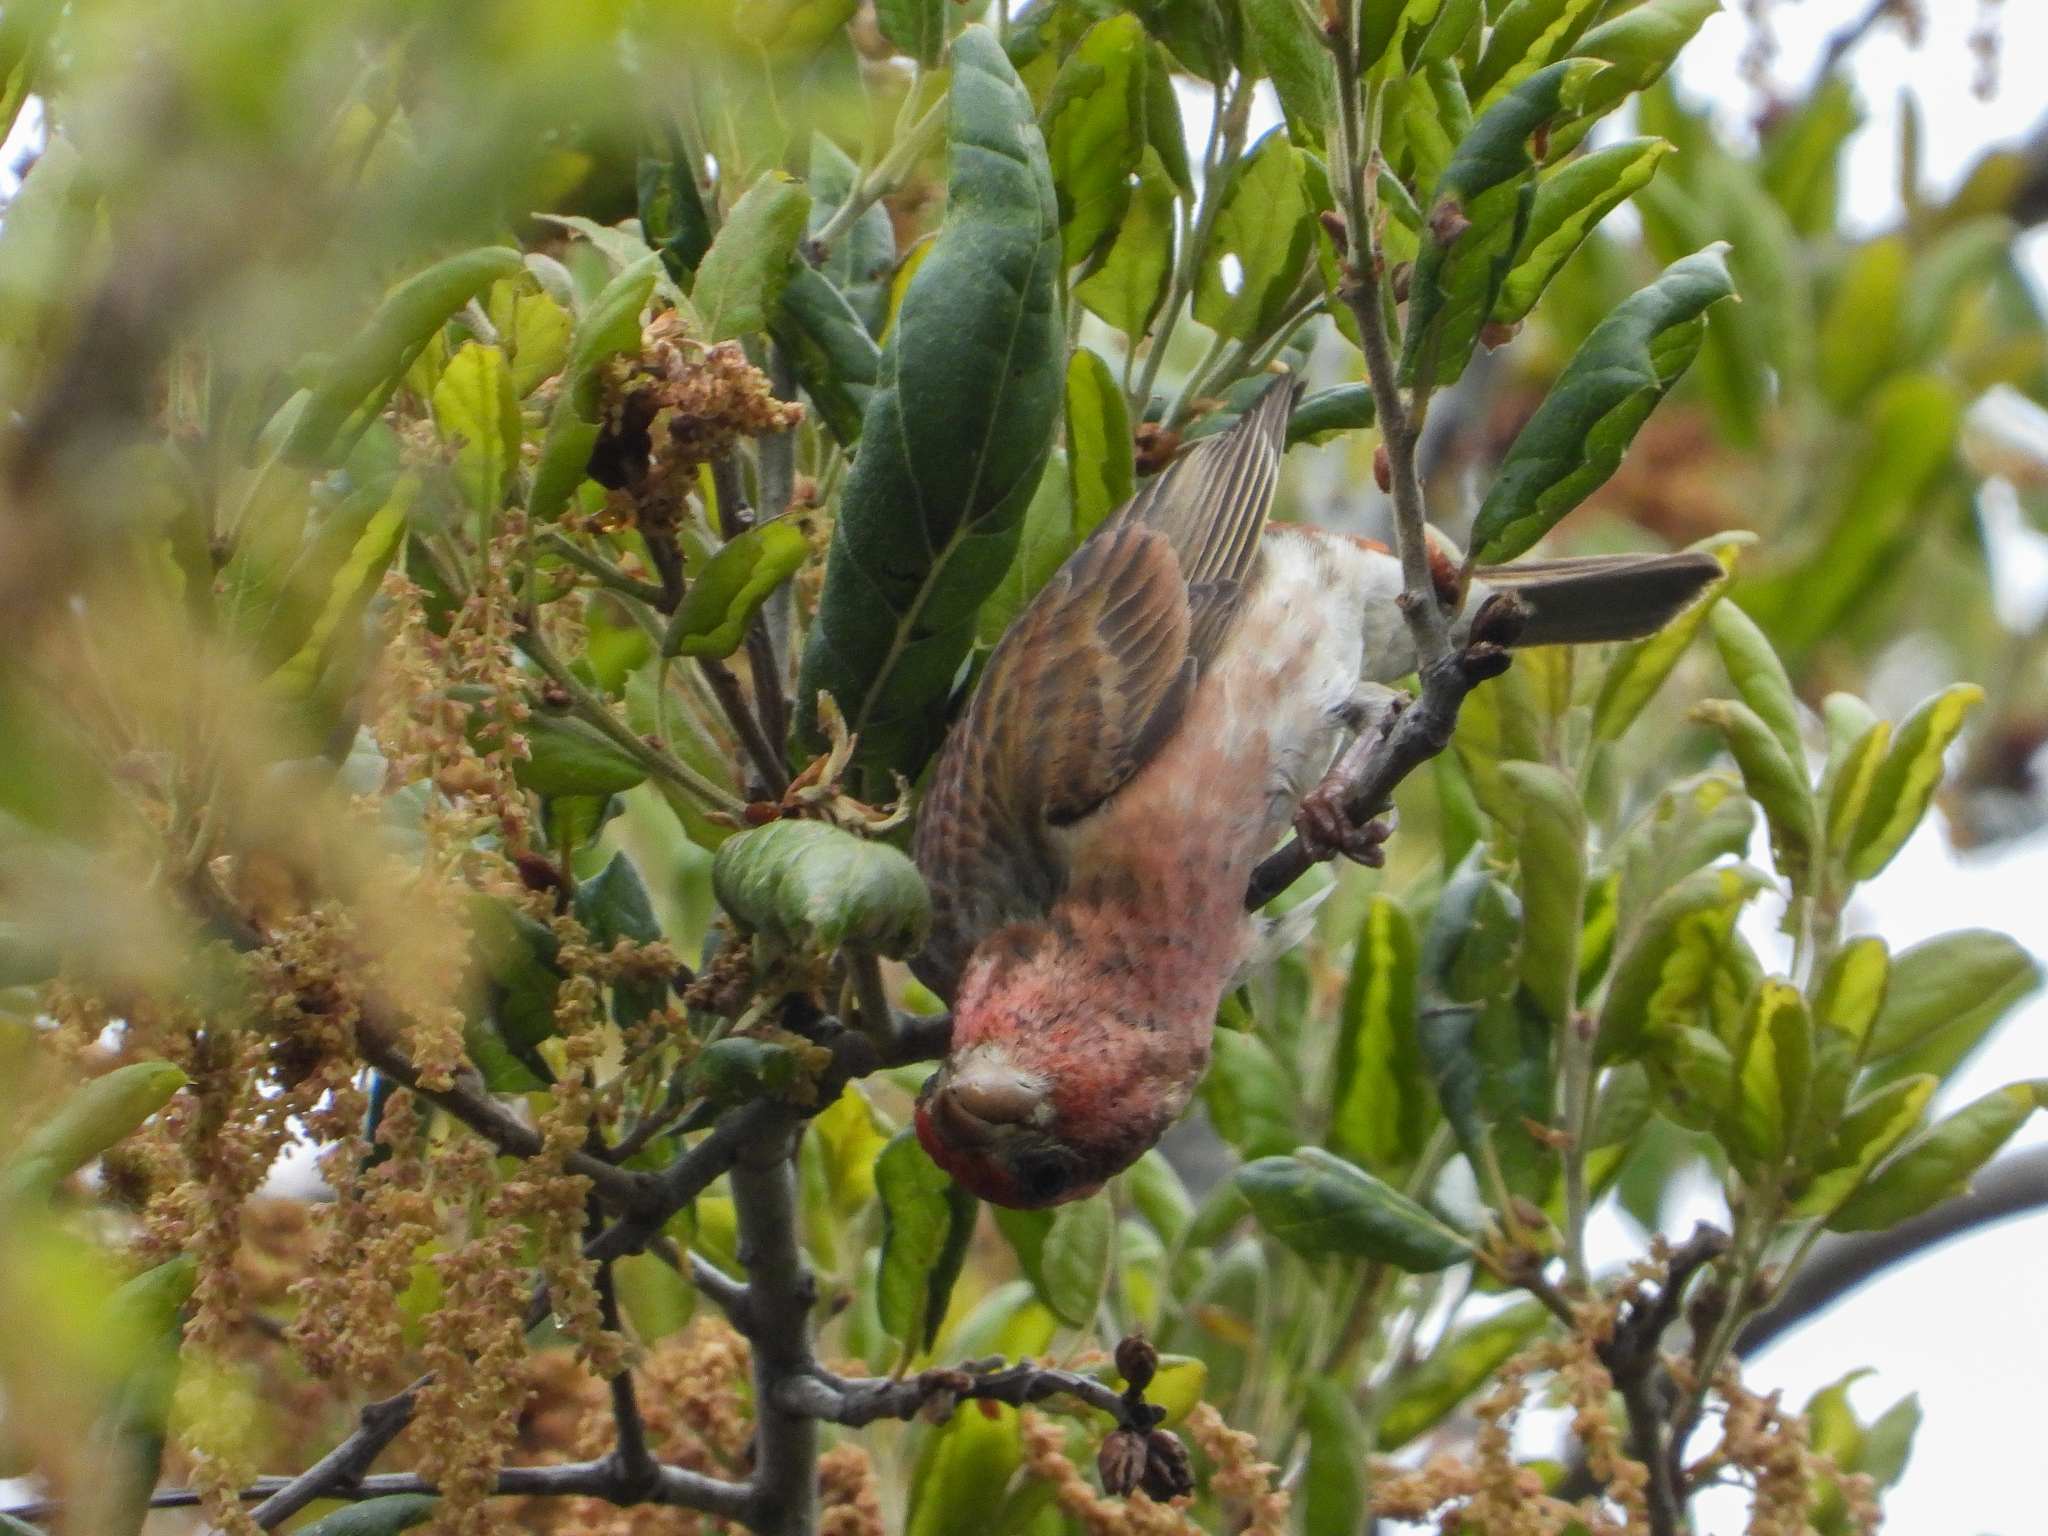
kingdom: Animalia
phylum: Chordata
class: Aves
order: Passeriformes
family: Fringillidae
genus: Haemorhous
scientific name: Haemorhous purpureus
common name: Purple finch
